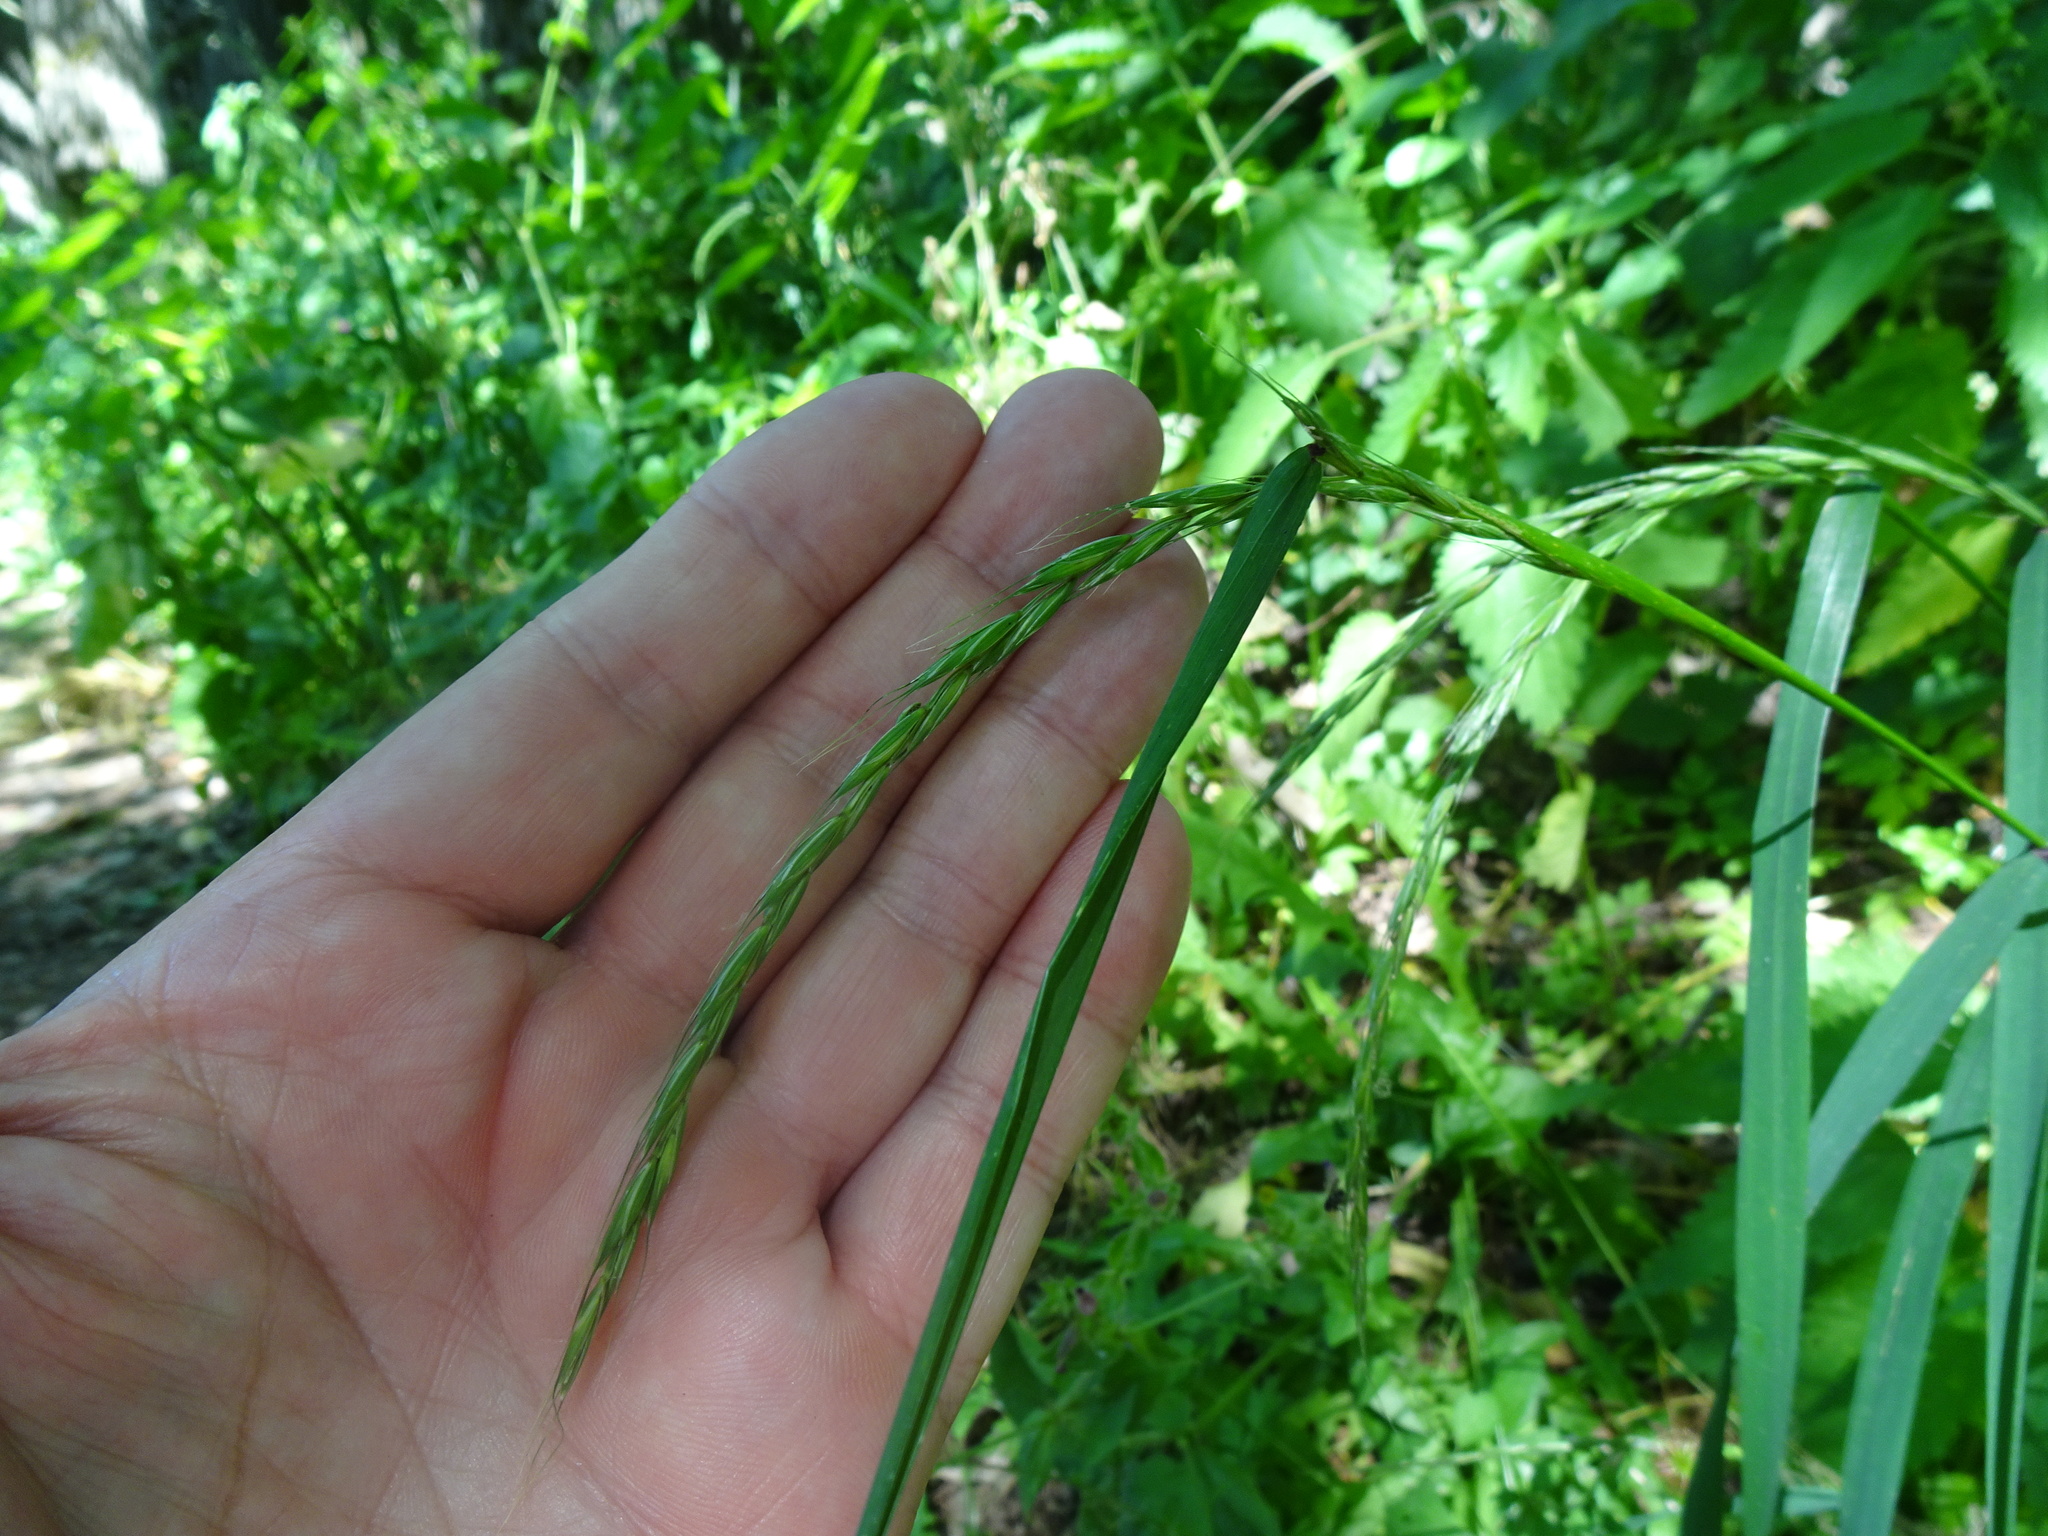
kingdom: Plantae
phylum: Tracheophyta
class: Liliopsida
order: Poales
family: Poaceae
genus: Elymus
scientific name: Elymus caninus
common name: Bearded couch
